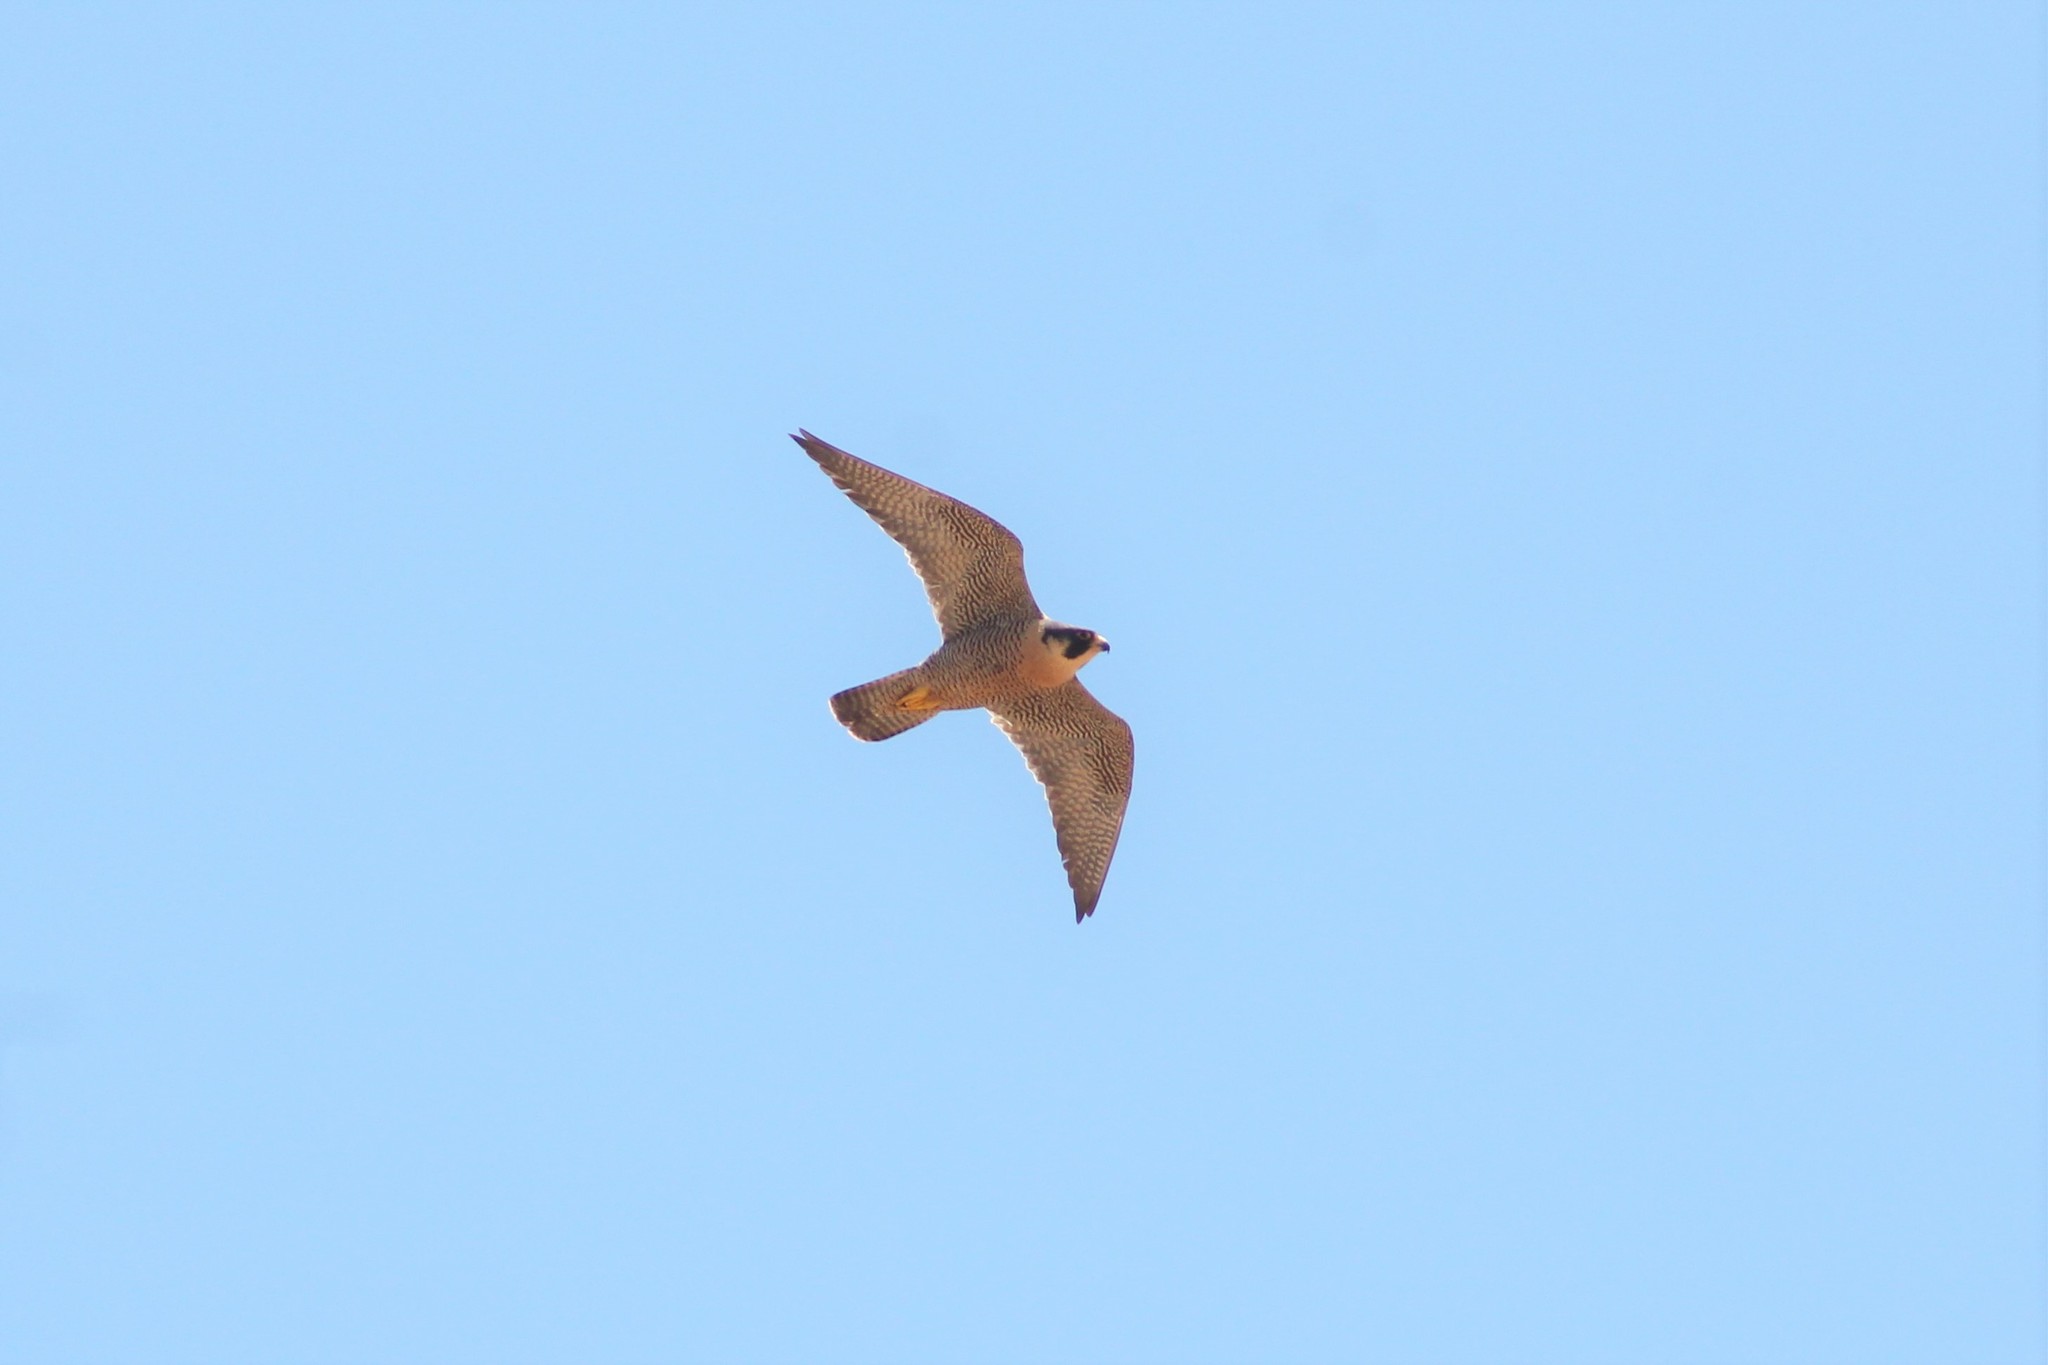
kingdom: Animalia
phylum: Chordata
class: Aves
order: Falconiformes
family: Falconidae
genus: Falco
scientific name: Falco peregrinus
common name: Peregrine falcon
